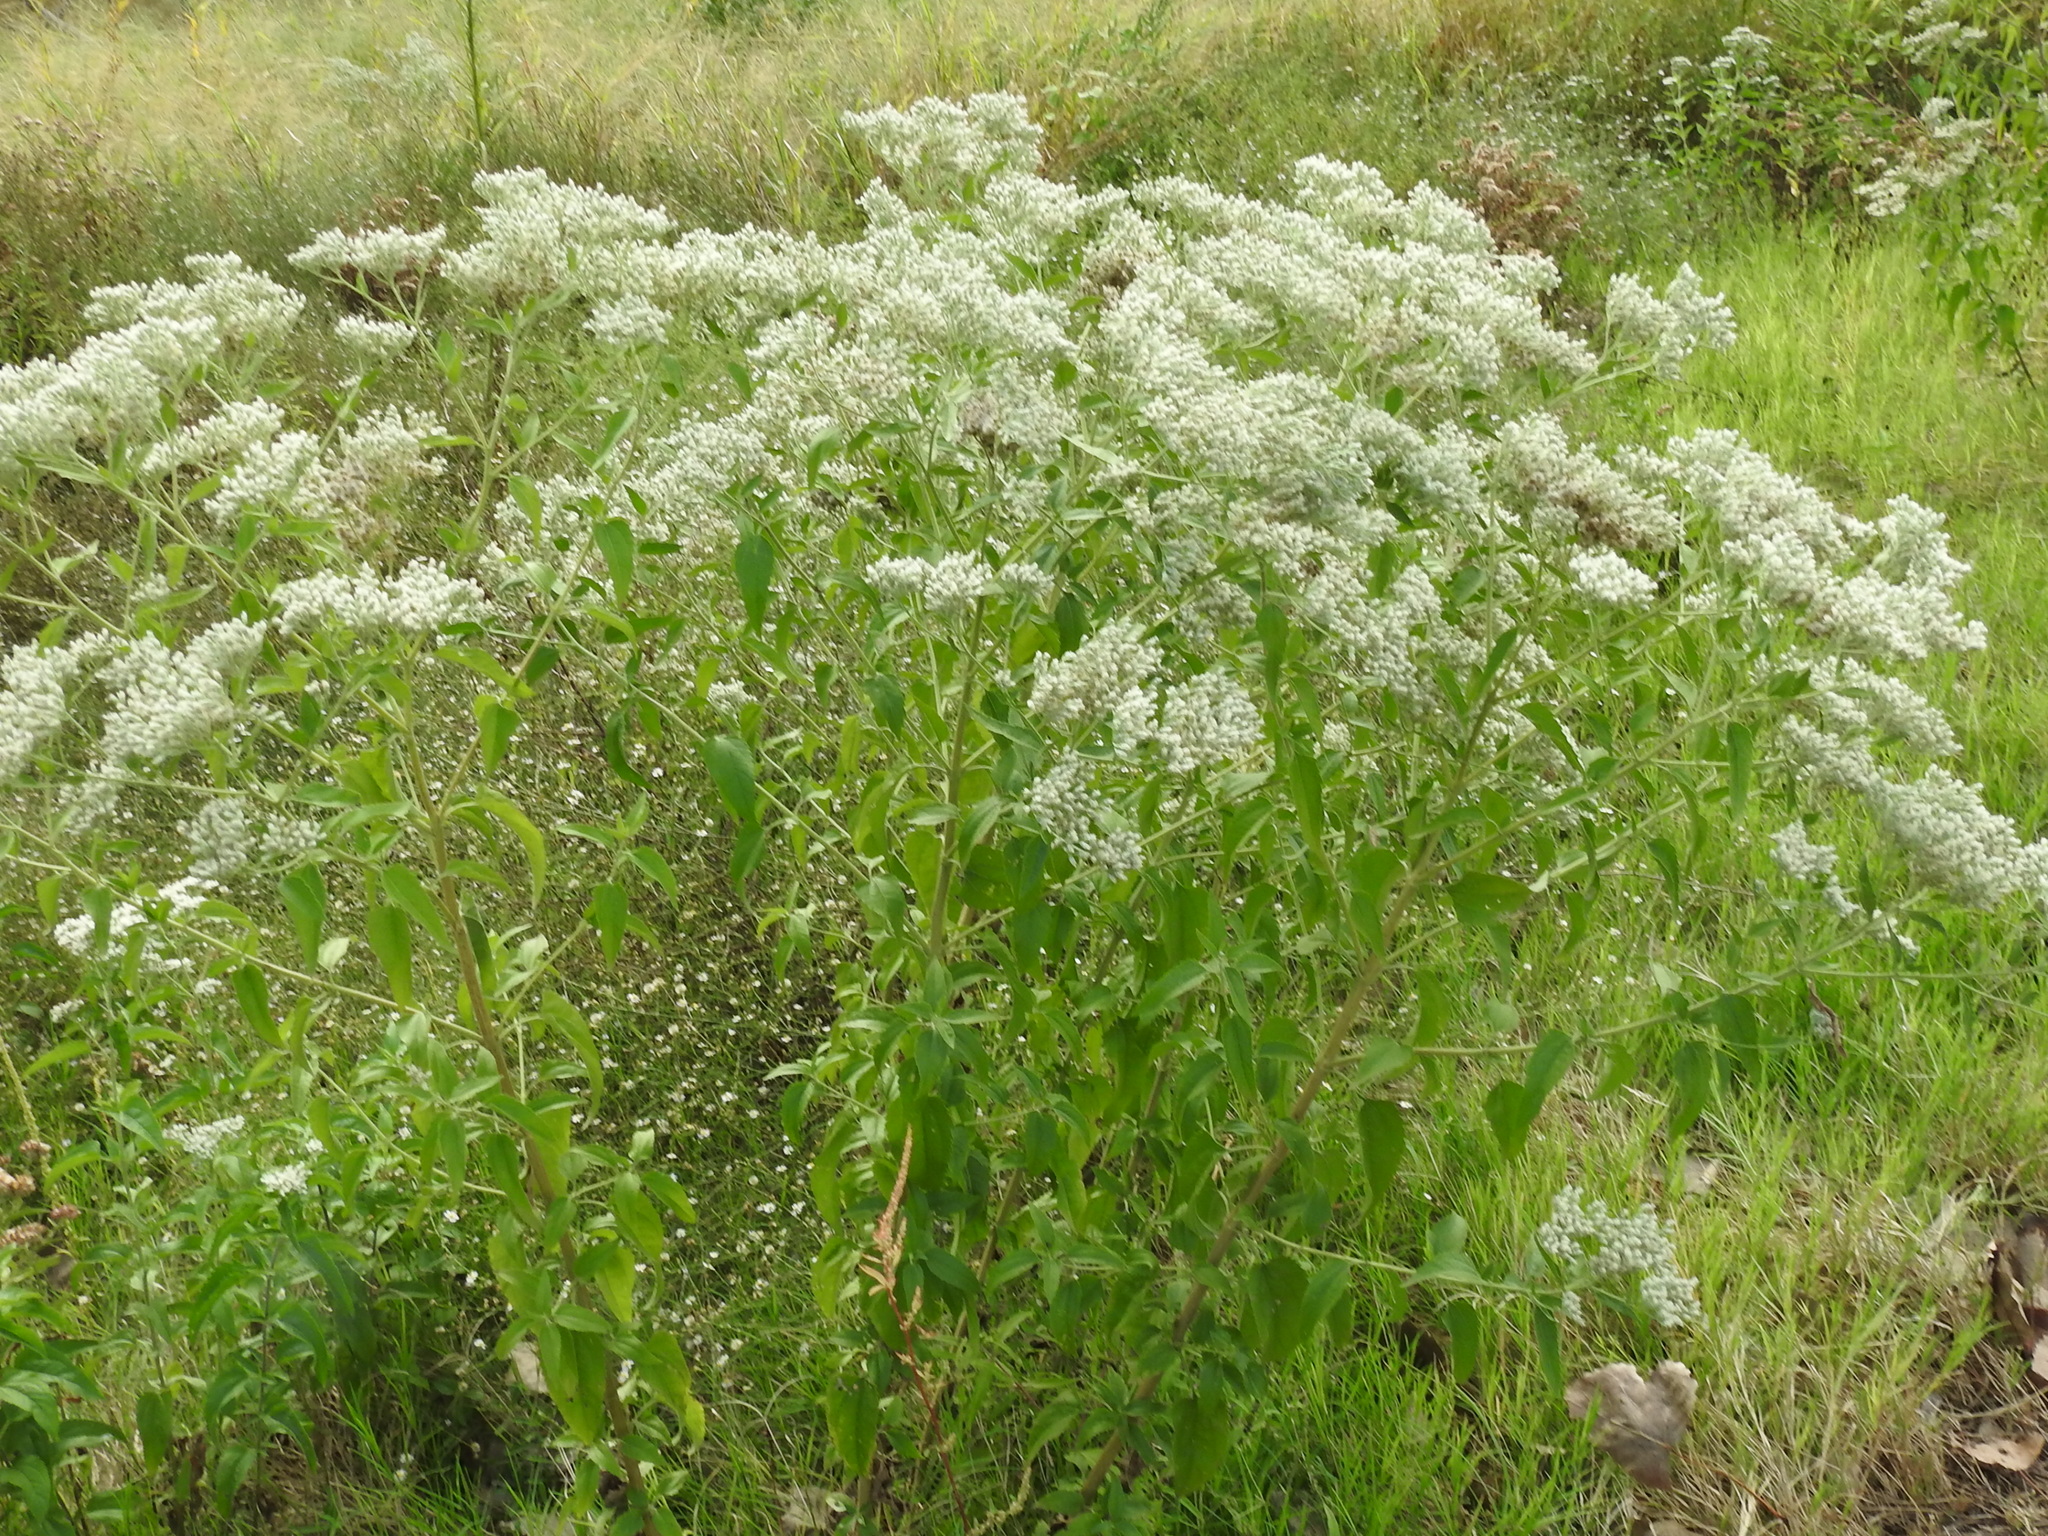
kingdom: Plantae
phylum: Tracheophyta
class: Magnoliopsida
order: Asterales
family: Asteraceae
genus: Eupatorium
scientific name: Eupatorium serotinum
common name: Late boneset
